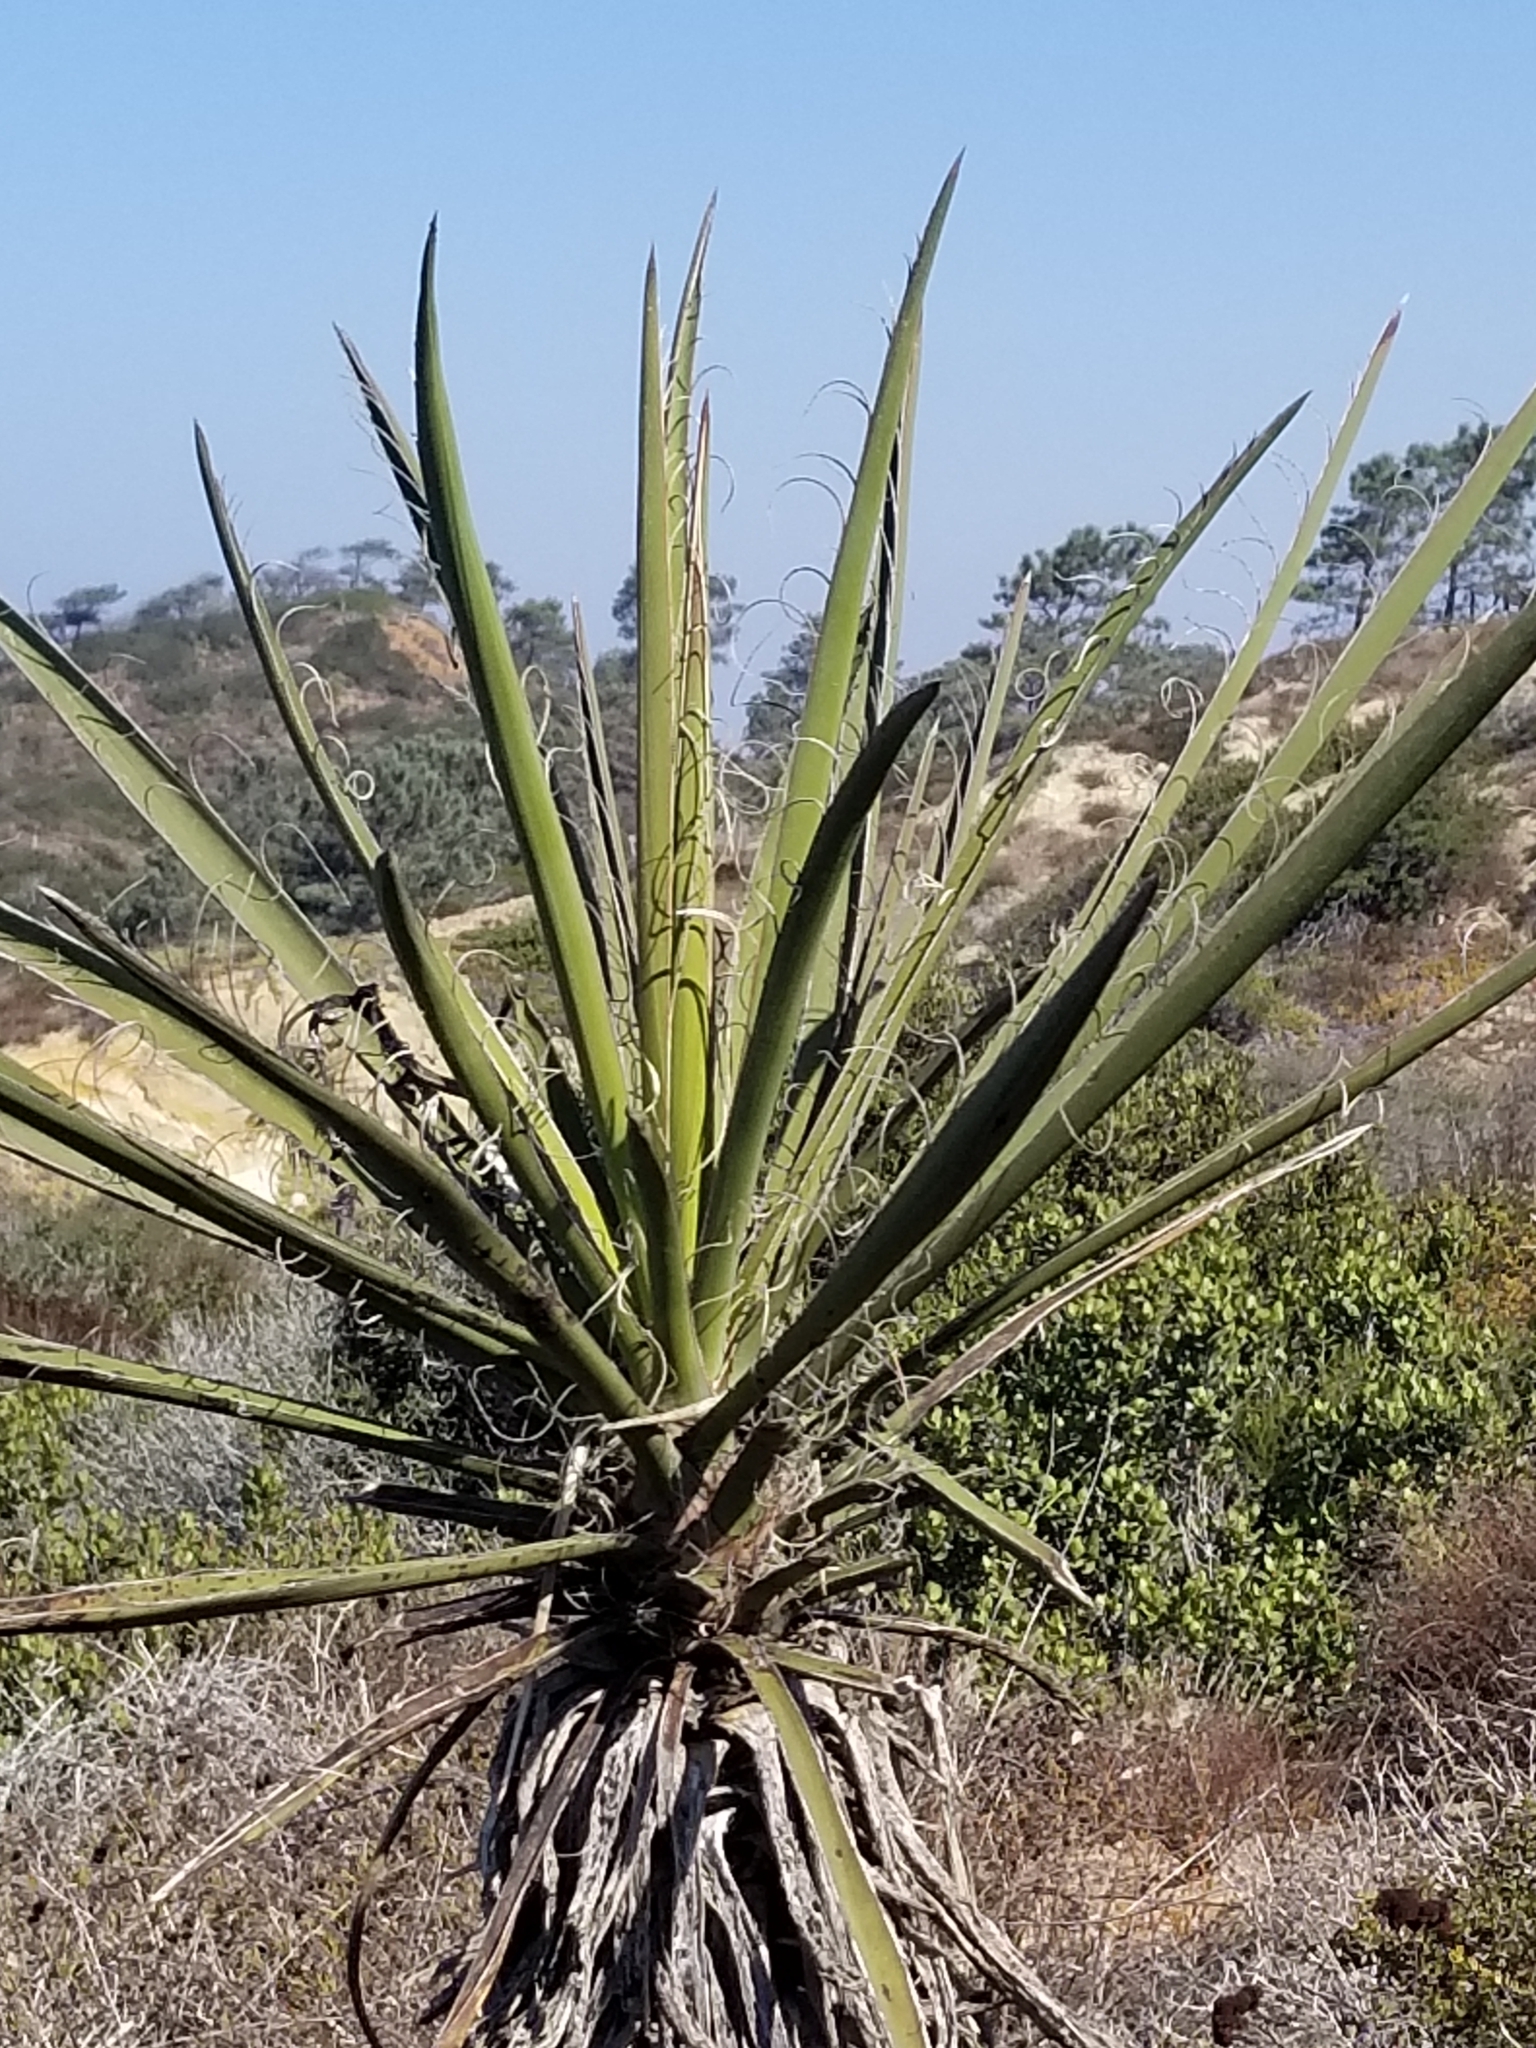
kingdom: Plantae
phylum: Tracheophyta
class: Liliopsida
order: Asparagales
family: Asparagaceae
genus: Yucca
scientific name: Yucca schidigera
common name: Mojave yucca
